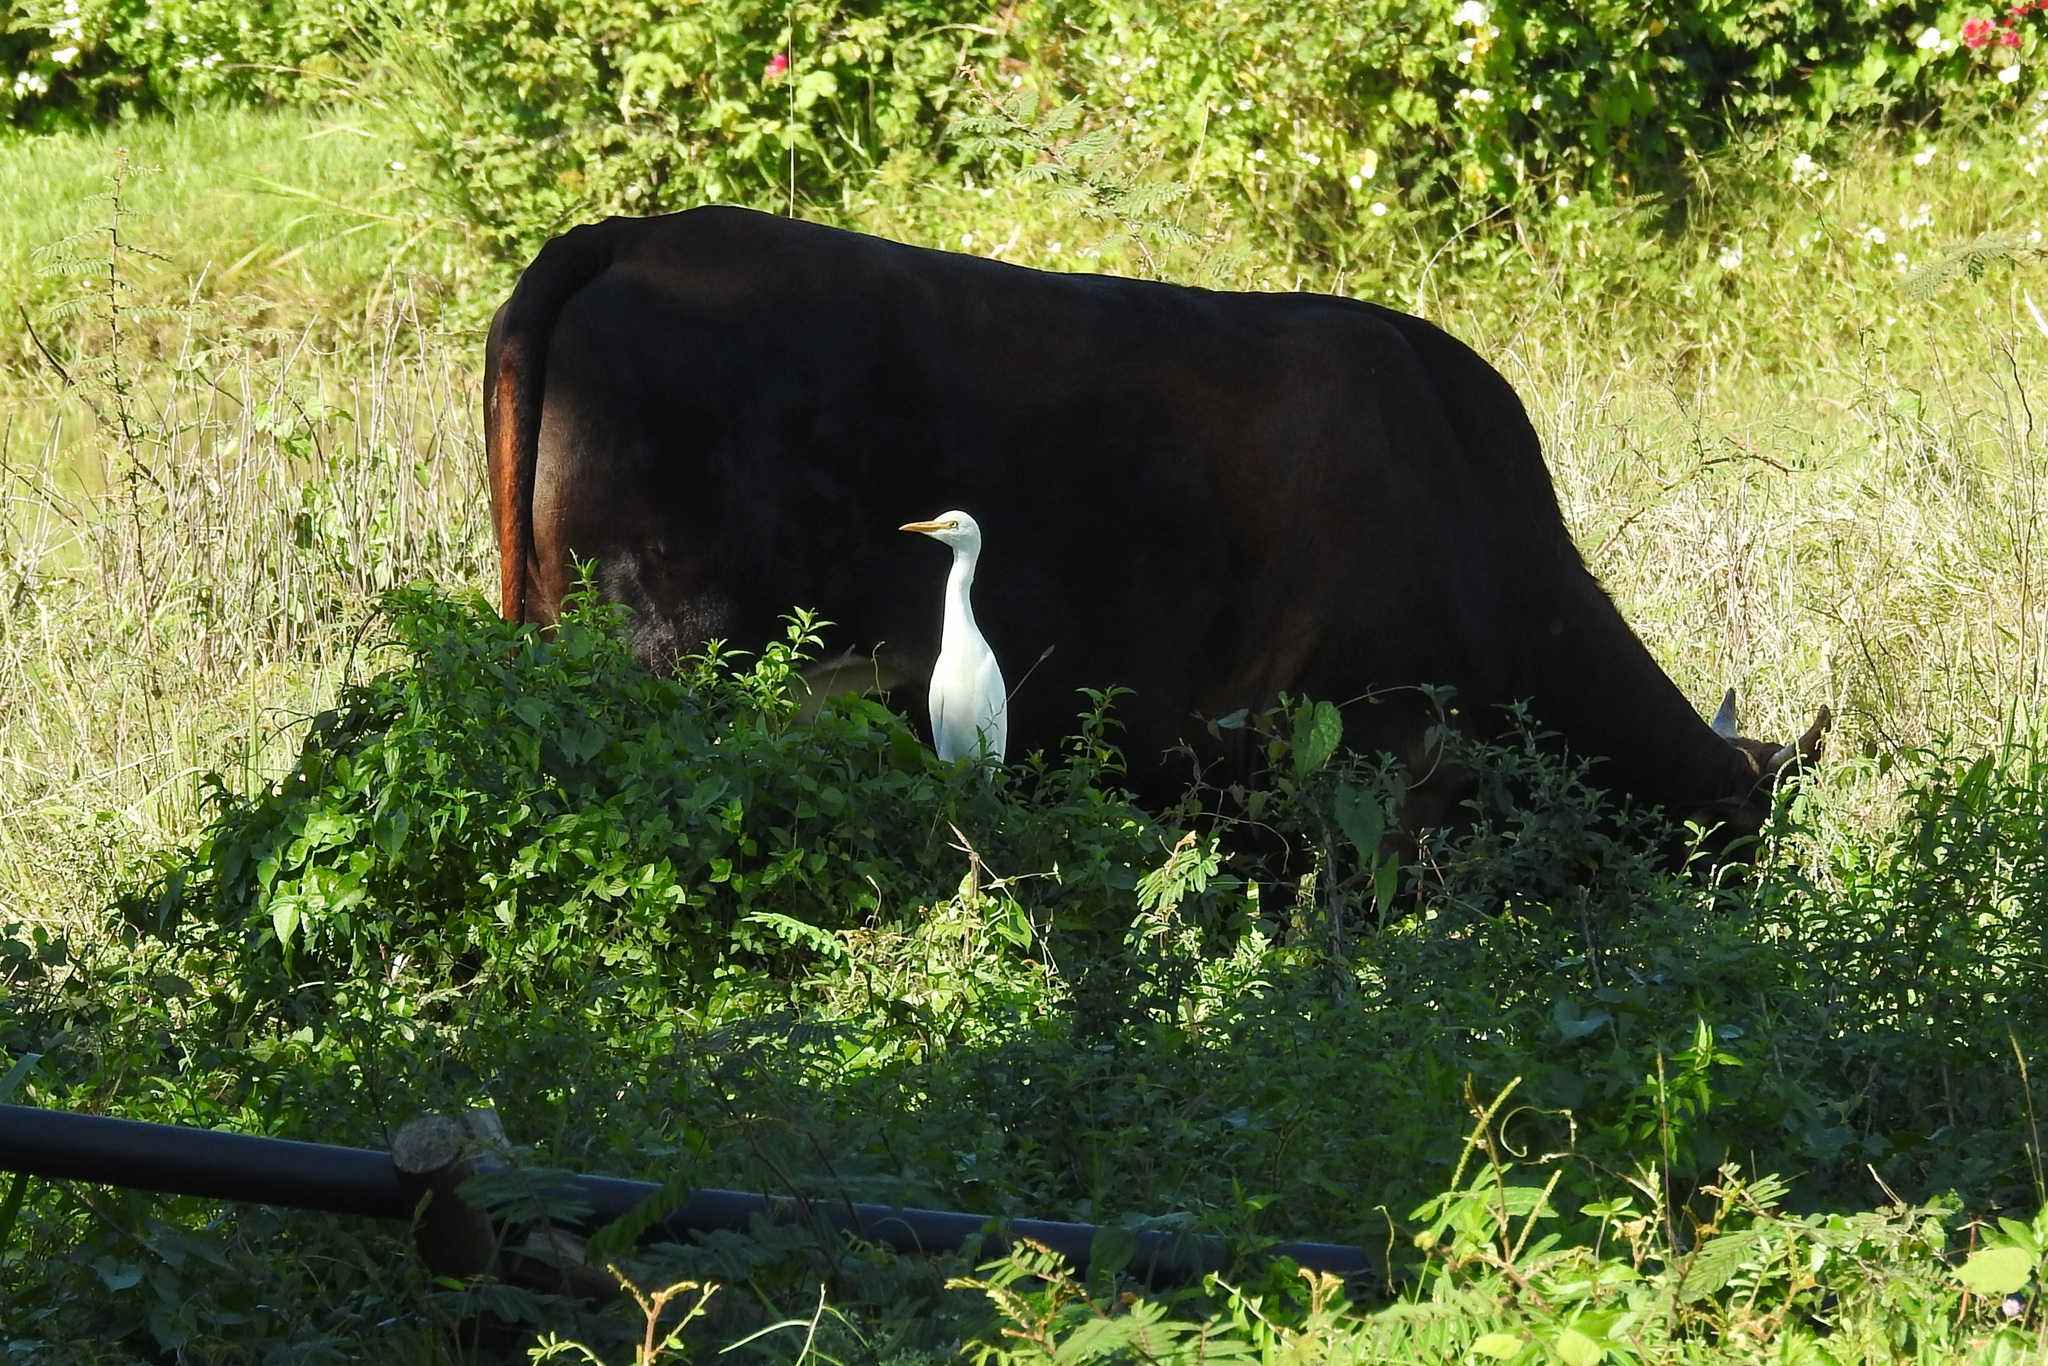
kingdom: Animalia
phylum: Chordata
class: Aves
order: Pelecaniformes
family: Ardeidae
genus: Bubulcus
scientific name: Bubulcus ibis
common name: Cattle egret
